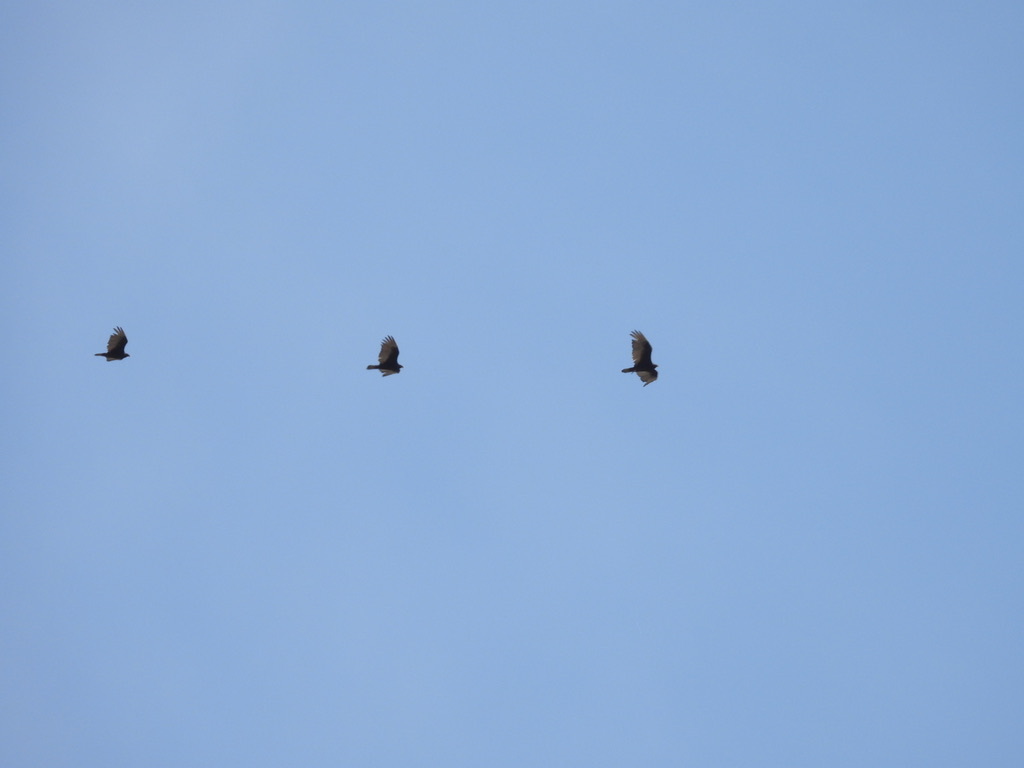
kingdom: Animalia
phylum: Chordata
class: Aves
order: Accipitriformes
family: Cathartidae
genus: Cathartes
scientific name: Cathartes aura
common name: Turkey vulture
